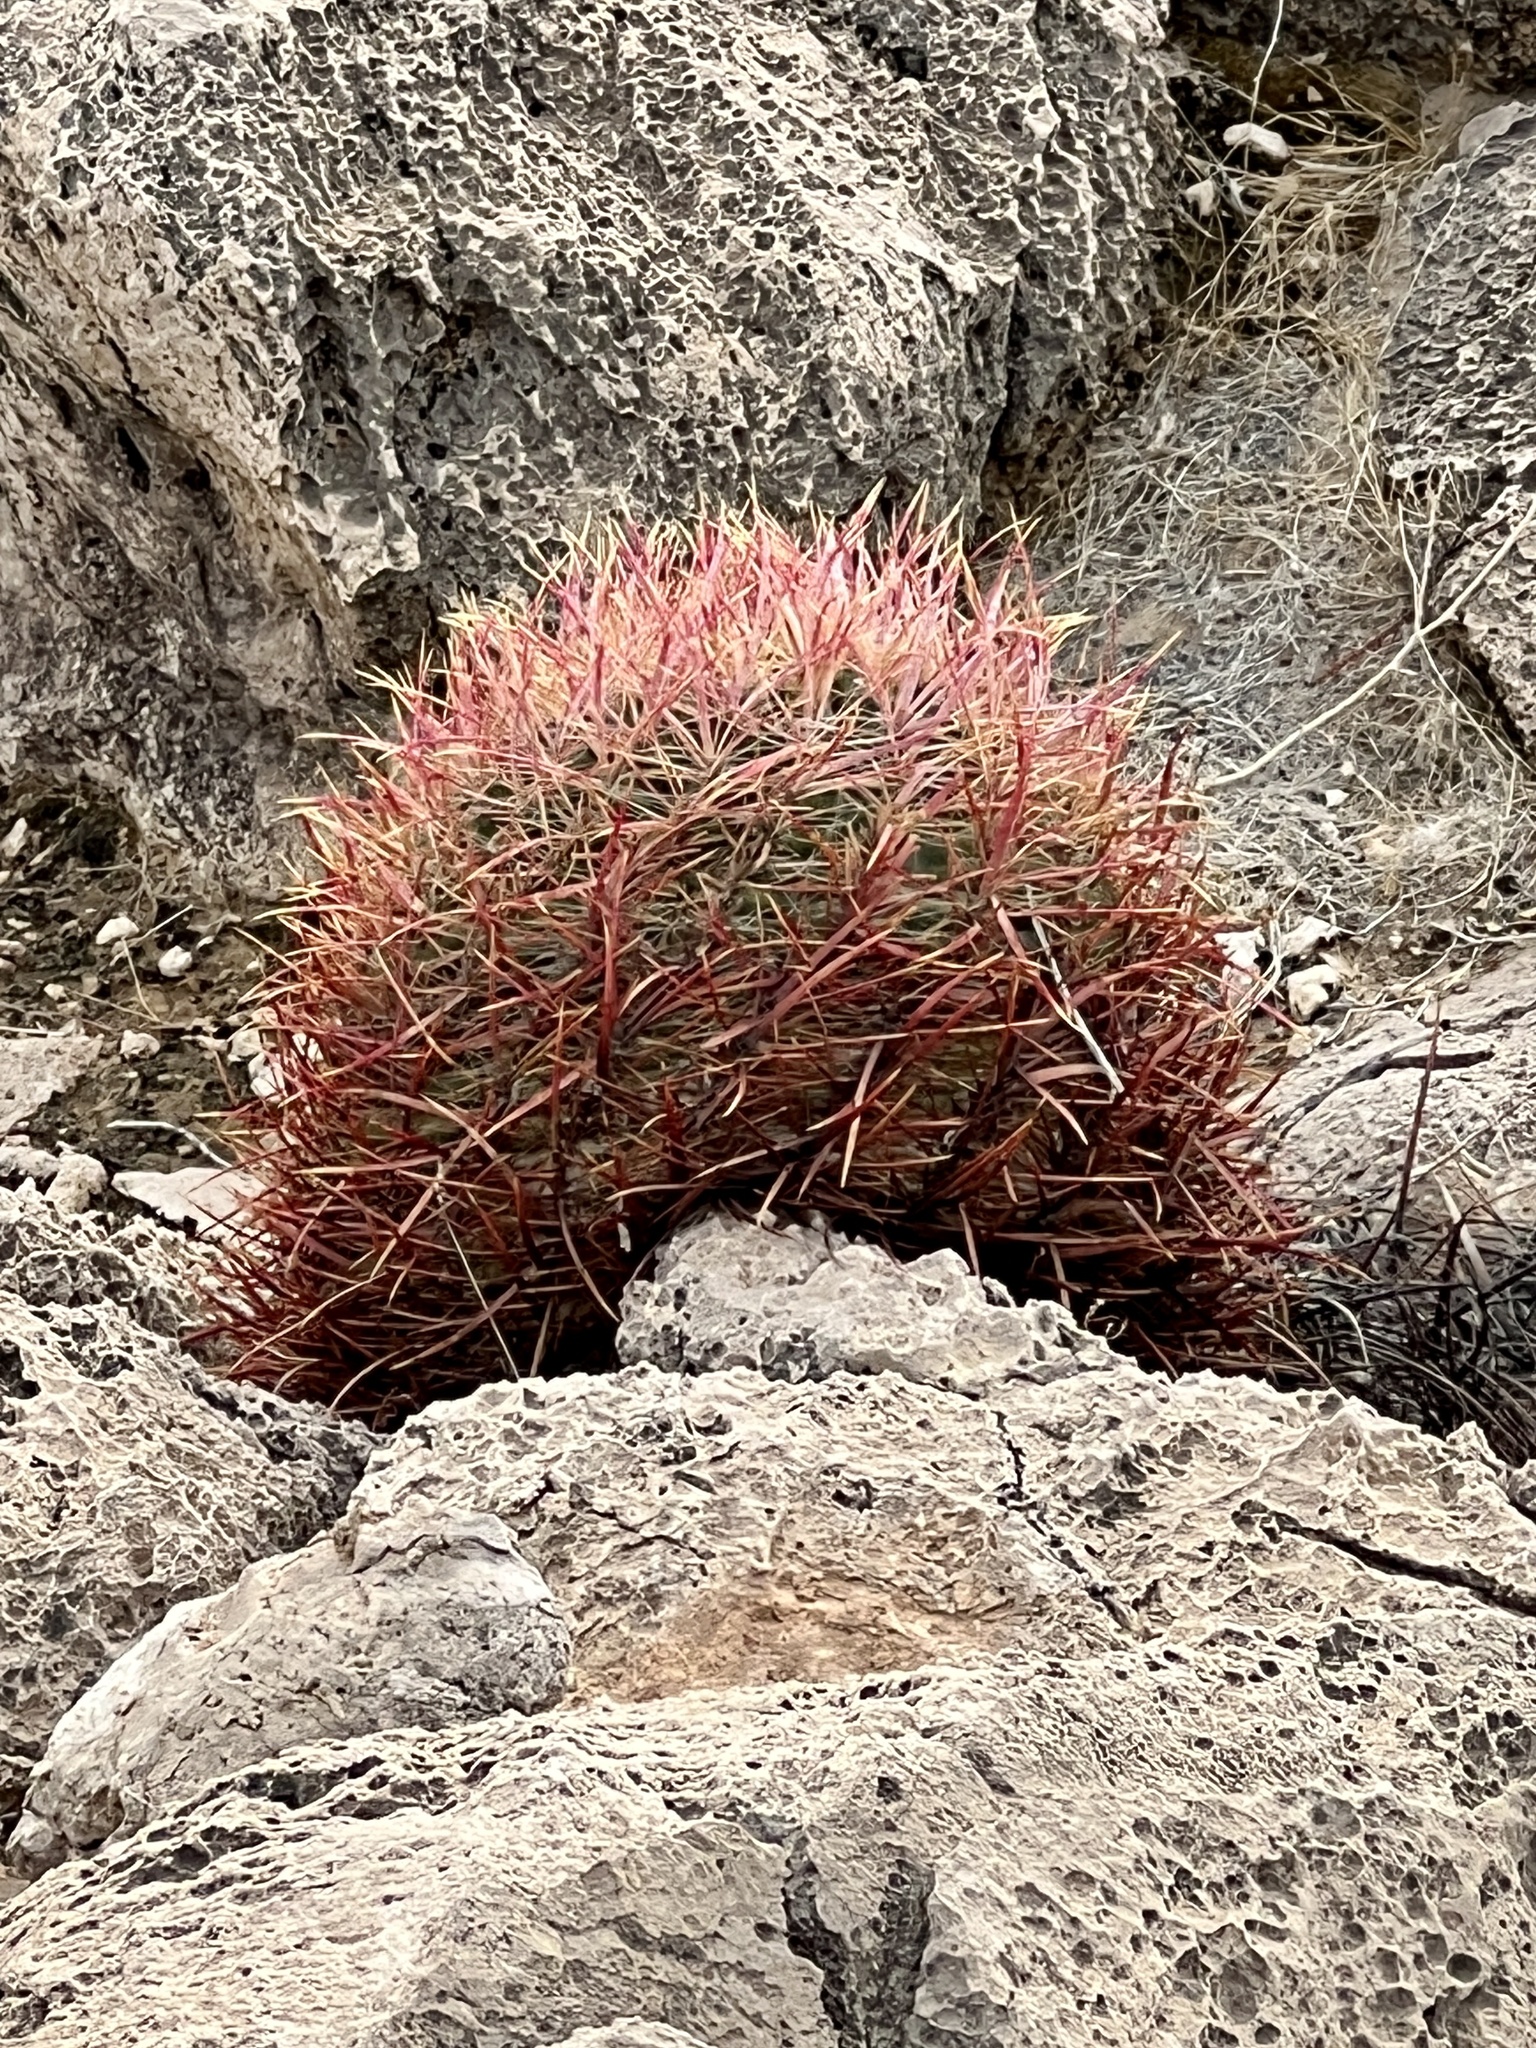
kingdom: Plantae
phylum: Tracheophyta
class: Magnoliopsida
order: Caryophyllales
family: Cactaceae
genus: Ferocactus
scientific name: Ferocactus cylindraceus
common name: California barrel cactus
